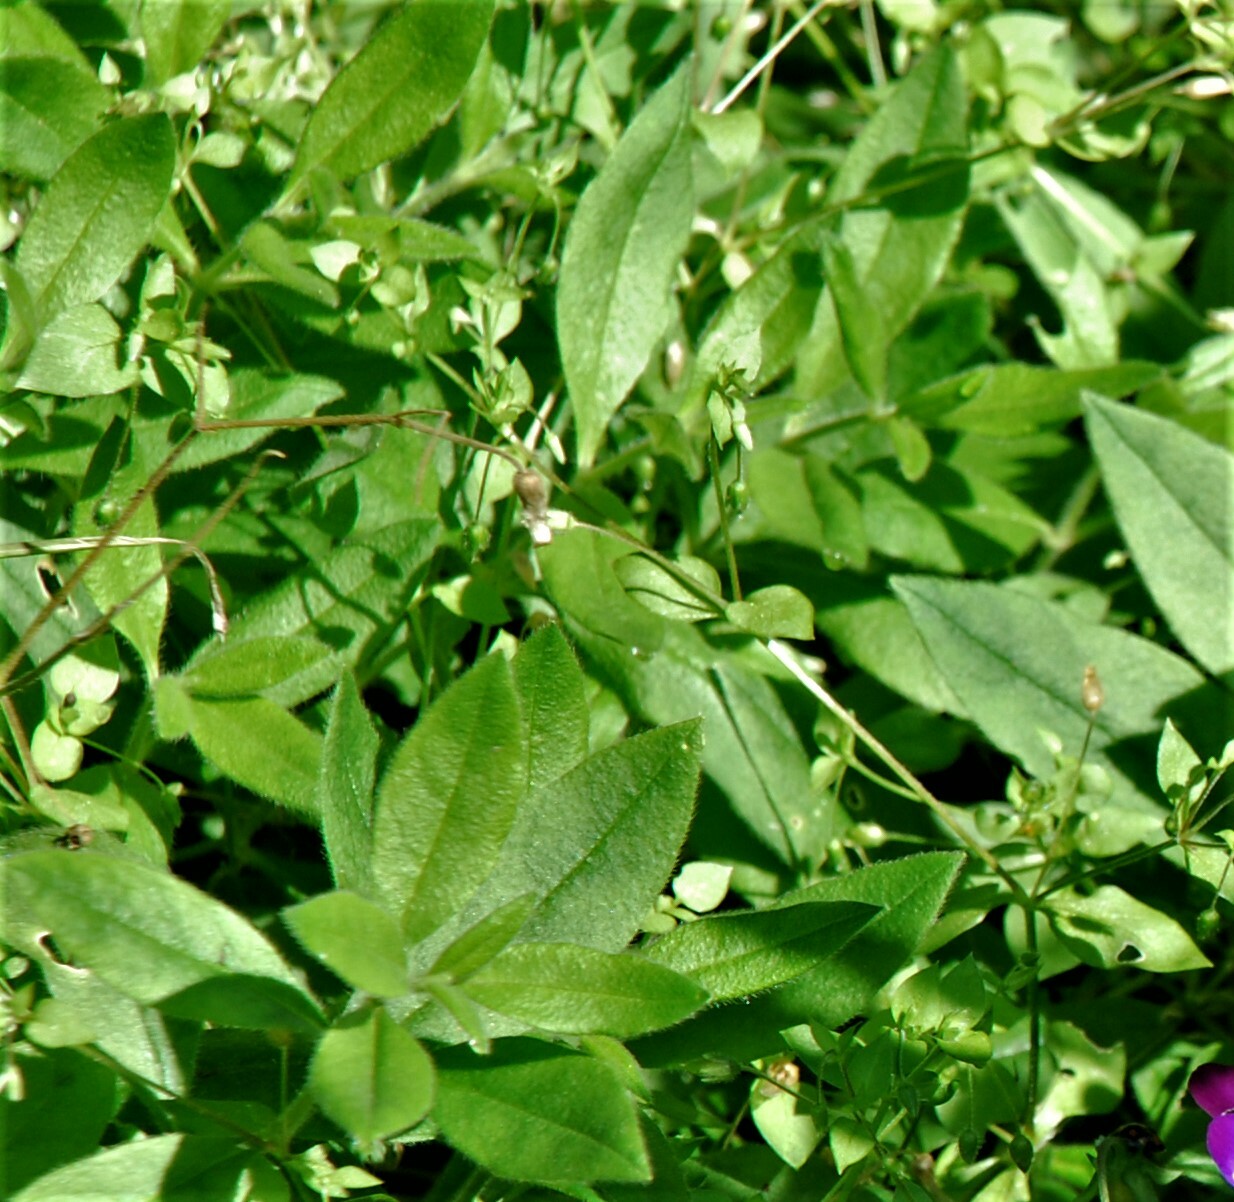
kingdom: Plantae
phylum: Tracheophyta
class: Magnoliopsida
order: Caryophyllales
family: Caryophyllaceae
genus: Cerastium
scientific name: Cerastium pauciflorum
